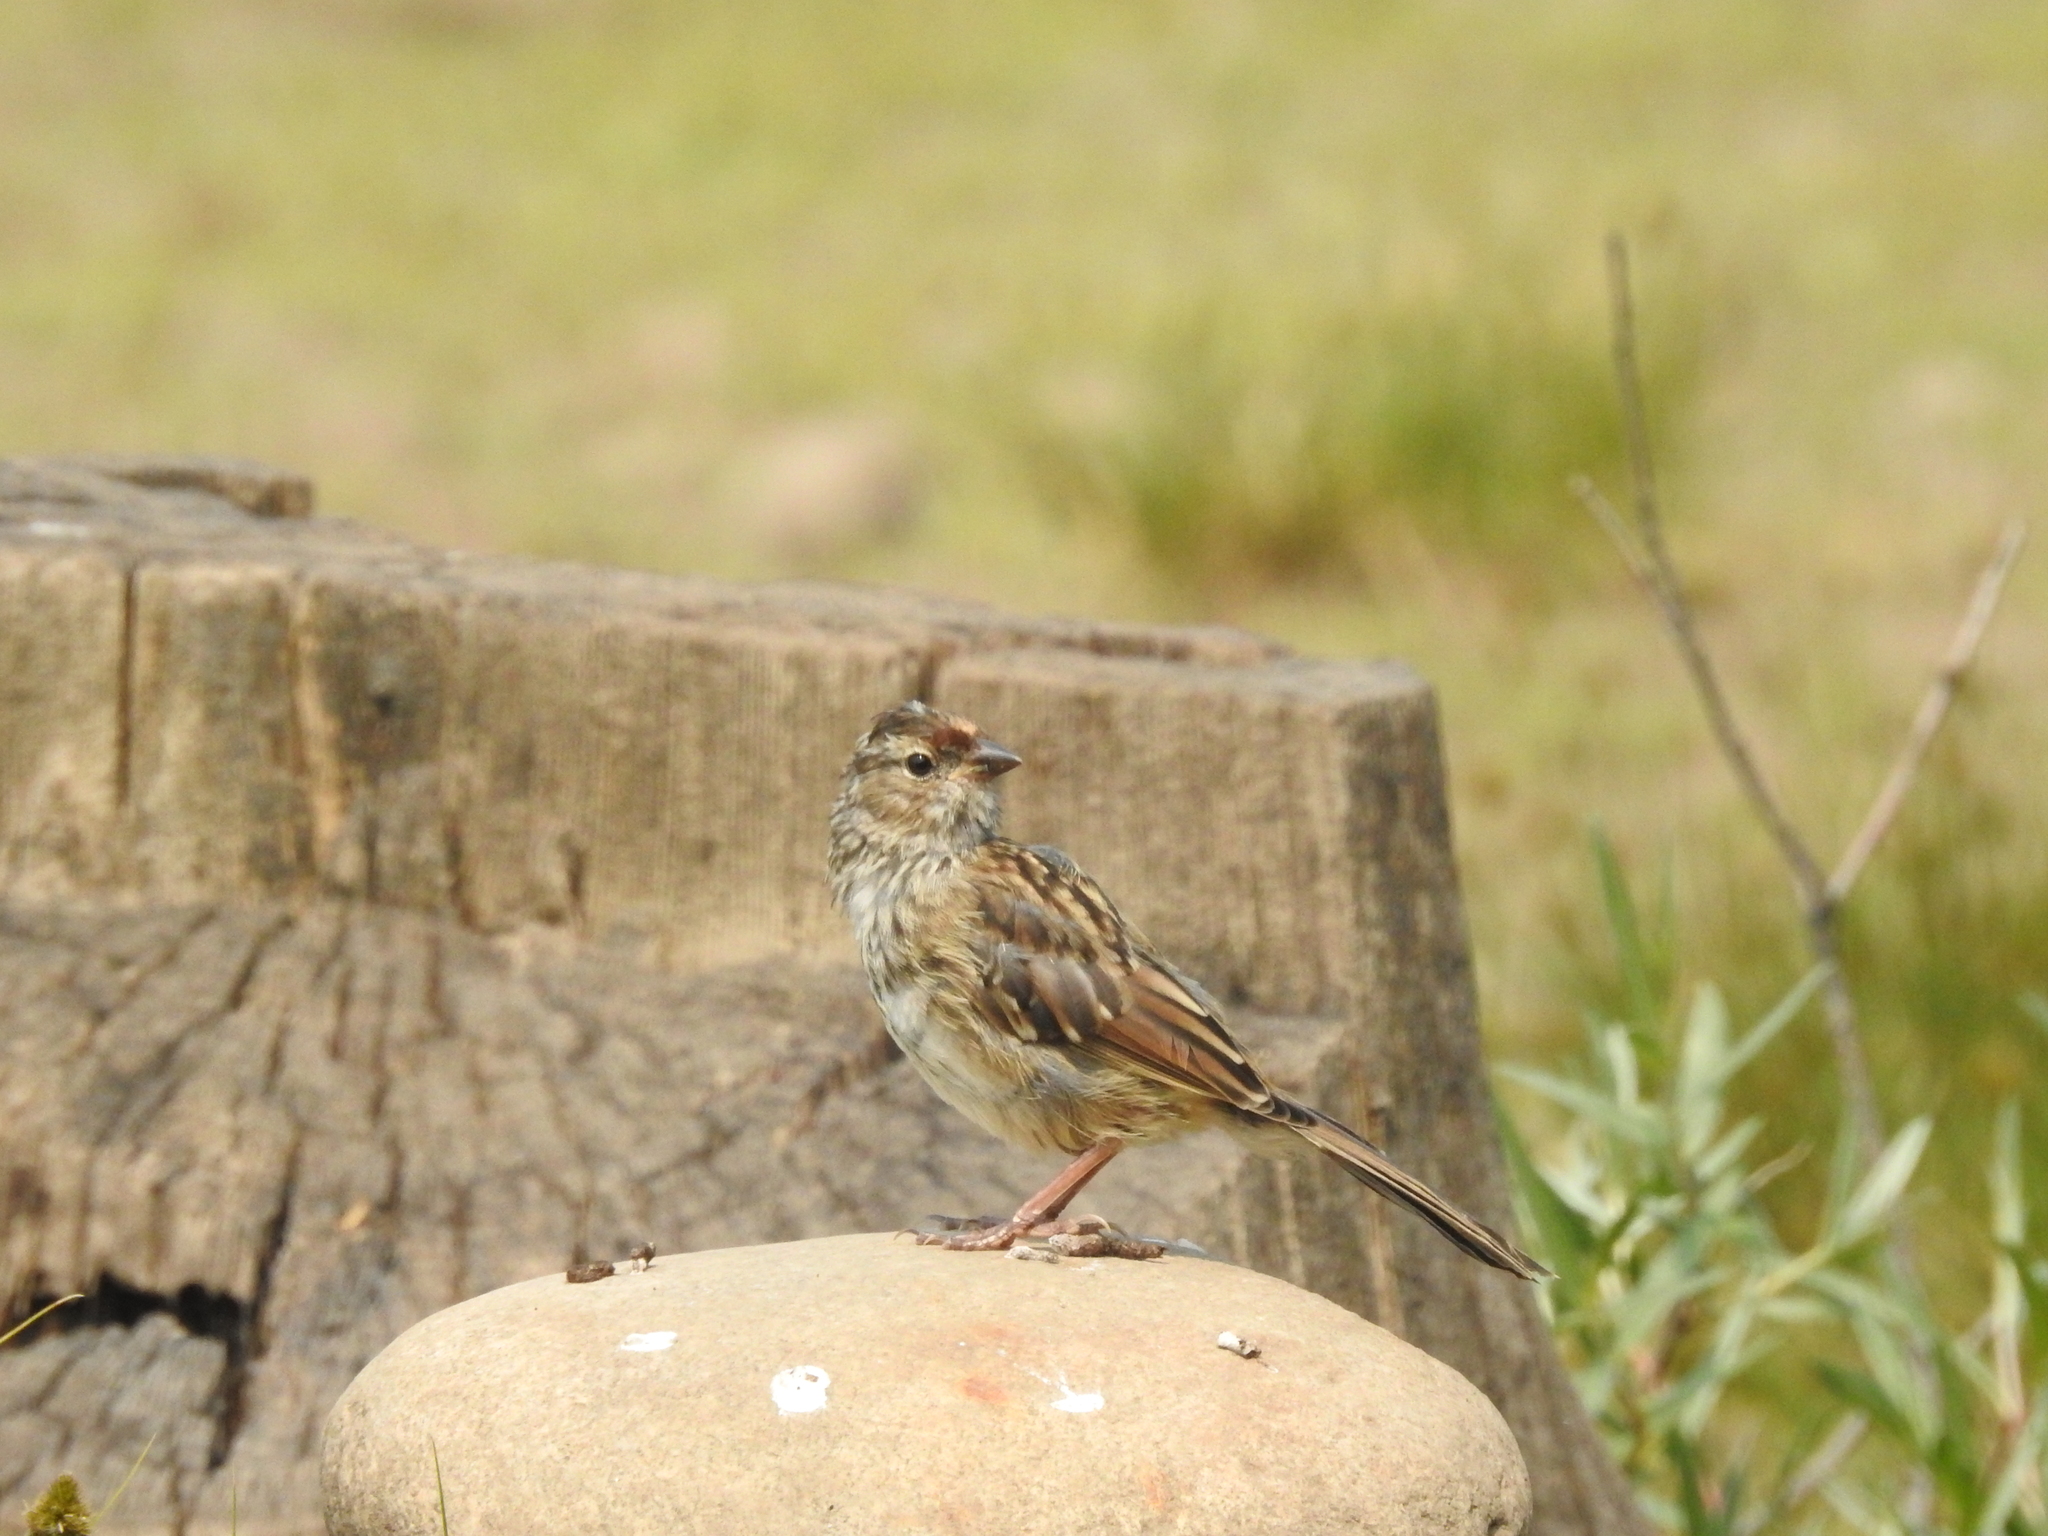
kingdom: Animalia
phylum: Chordata
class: Aves
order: Passeriformes
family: Passerellidae
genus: Zonotrichia
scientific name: Zonotrichia leucophrys
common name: White-crowned sparrow
